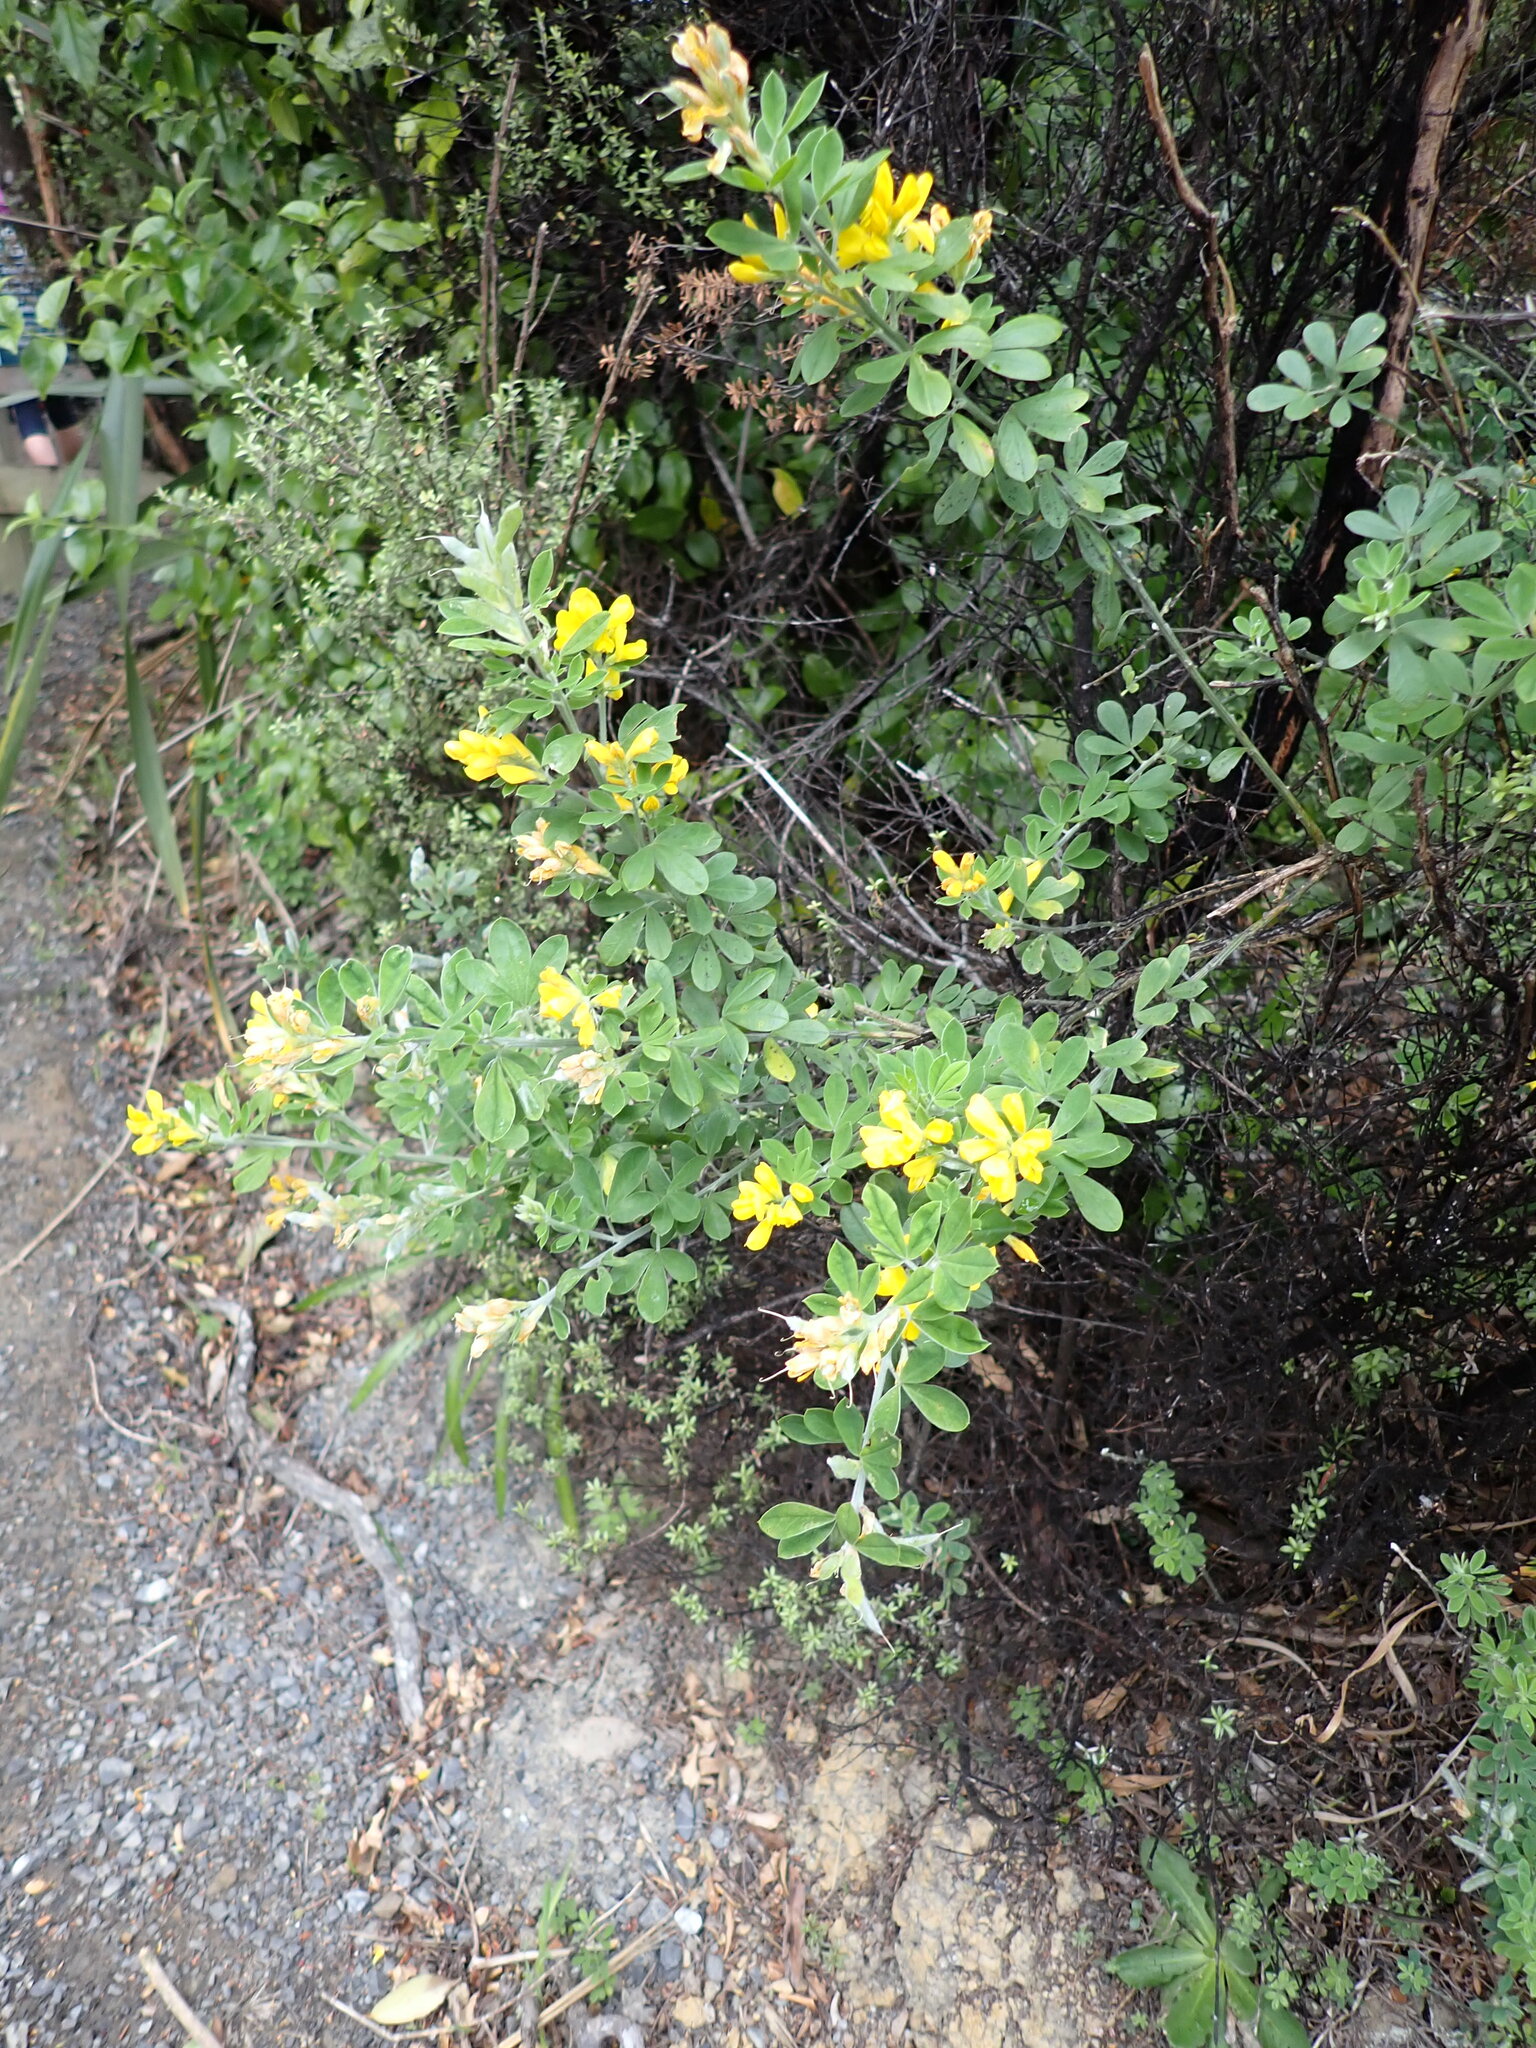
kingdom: Plantae
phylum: Tracheophyta
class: Magnoliopsida
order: Fabales
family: Fabaceae
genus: Genista
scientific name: Genista monspessulana
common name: Montpellier broom
